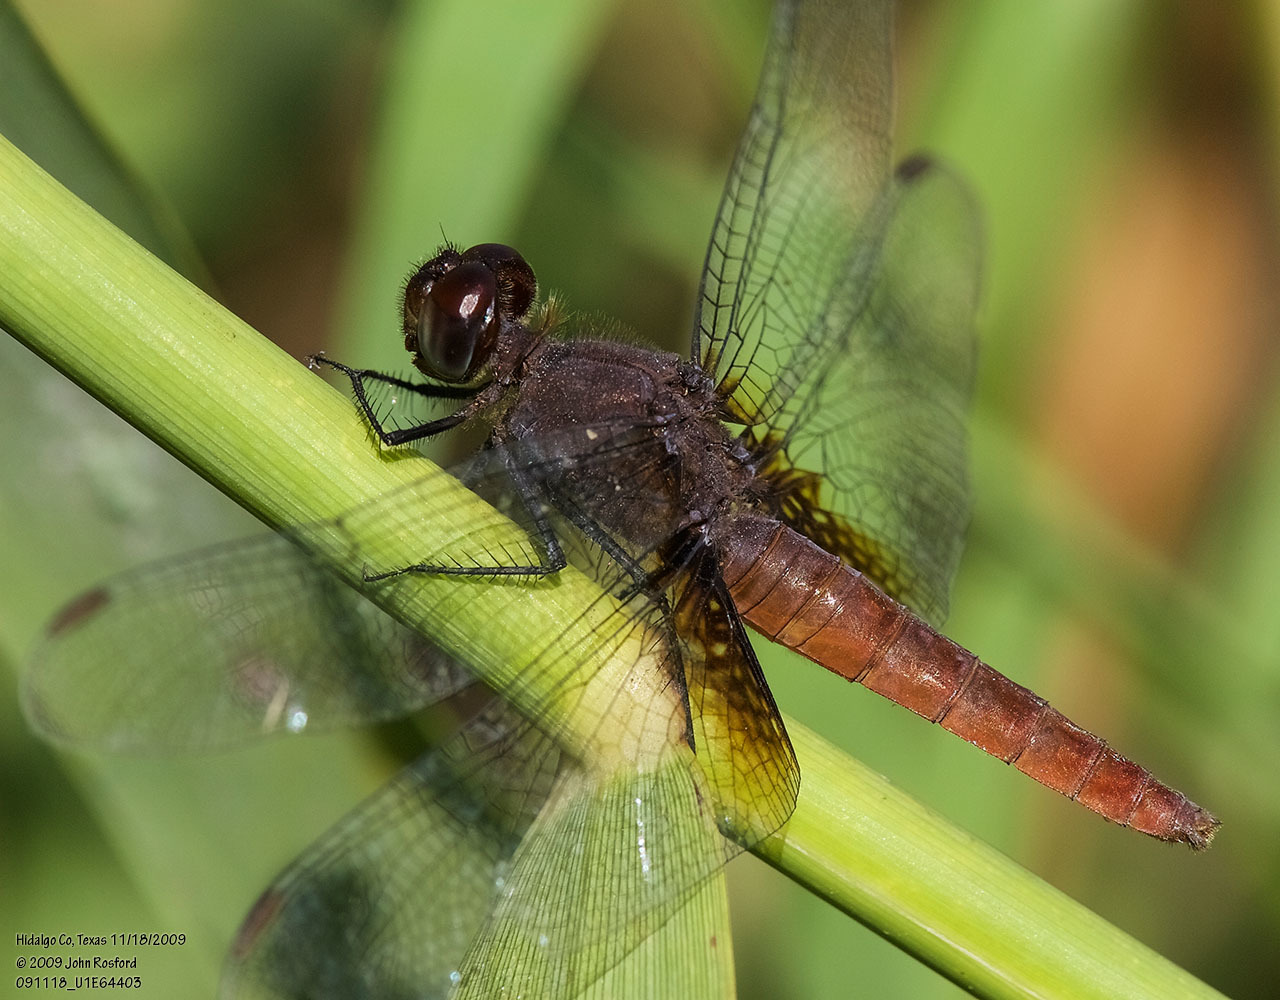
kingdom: Animalia
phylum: Arthropoda
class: Insecta
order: Odonata
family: Libellulidae
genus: Planiplax
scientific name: Planiplax sanguiniventris
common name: Mexican scarlet-tail
